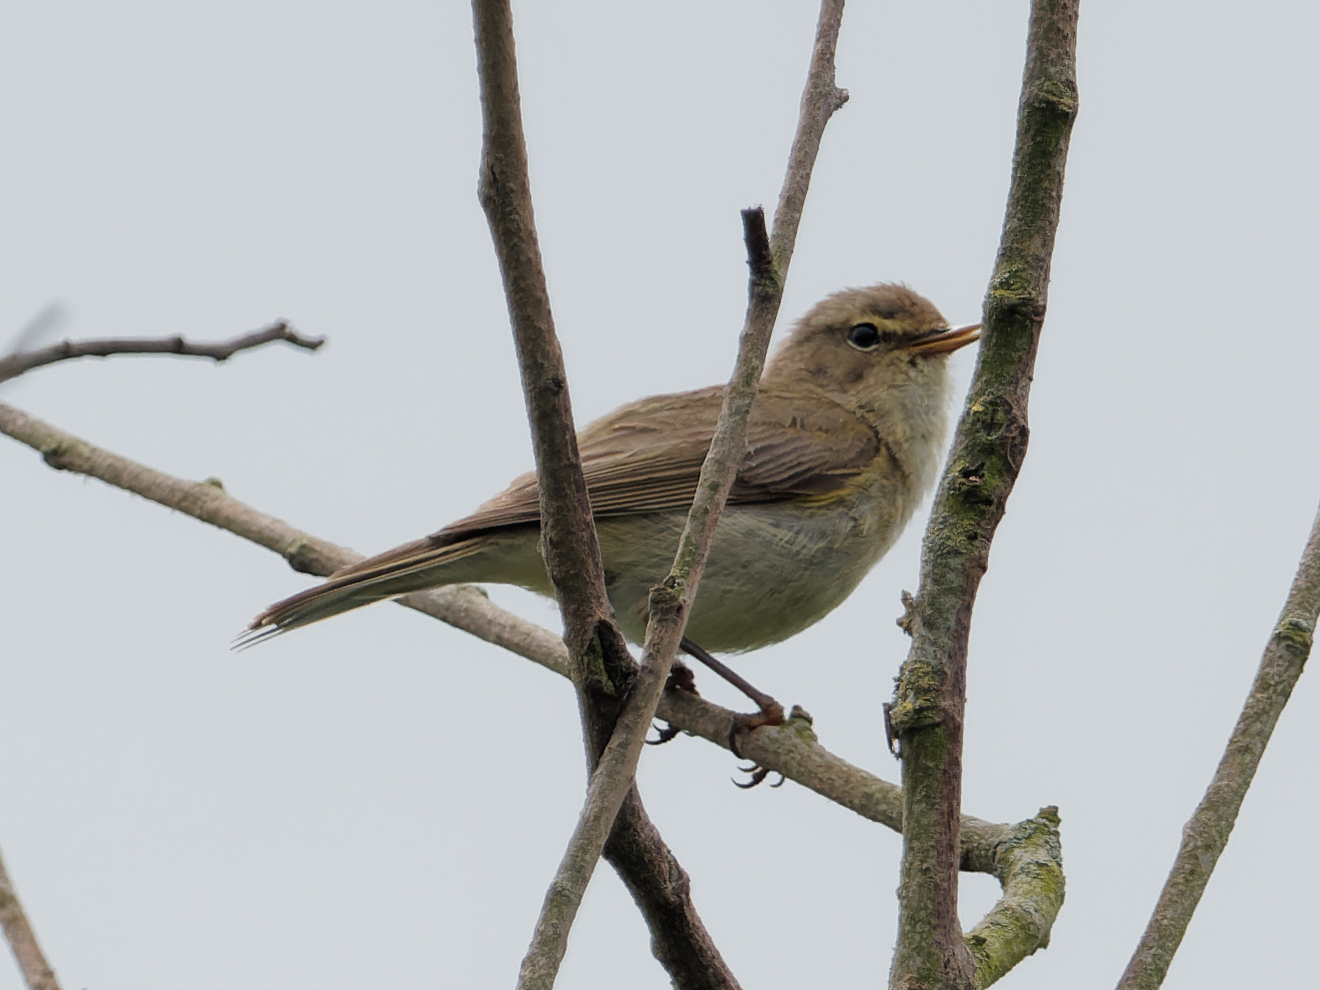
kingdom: Animalia
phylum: Chordata
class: Aves
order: Passeriformes
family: Phylloscopidae
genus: Phylloscopus
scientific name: Phylloscopus collybita
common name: Common chiffchaff
